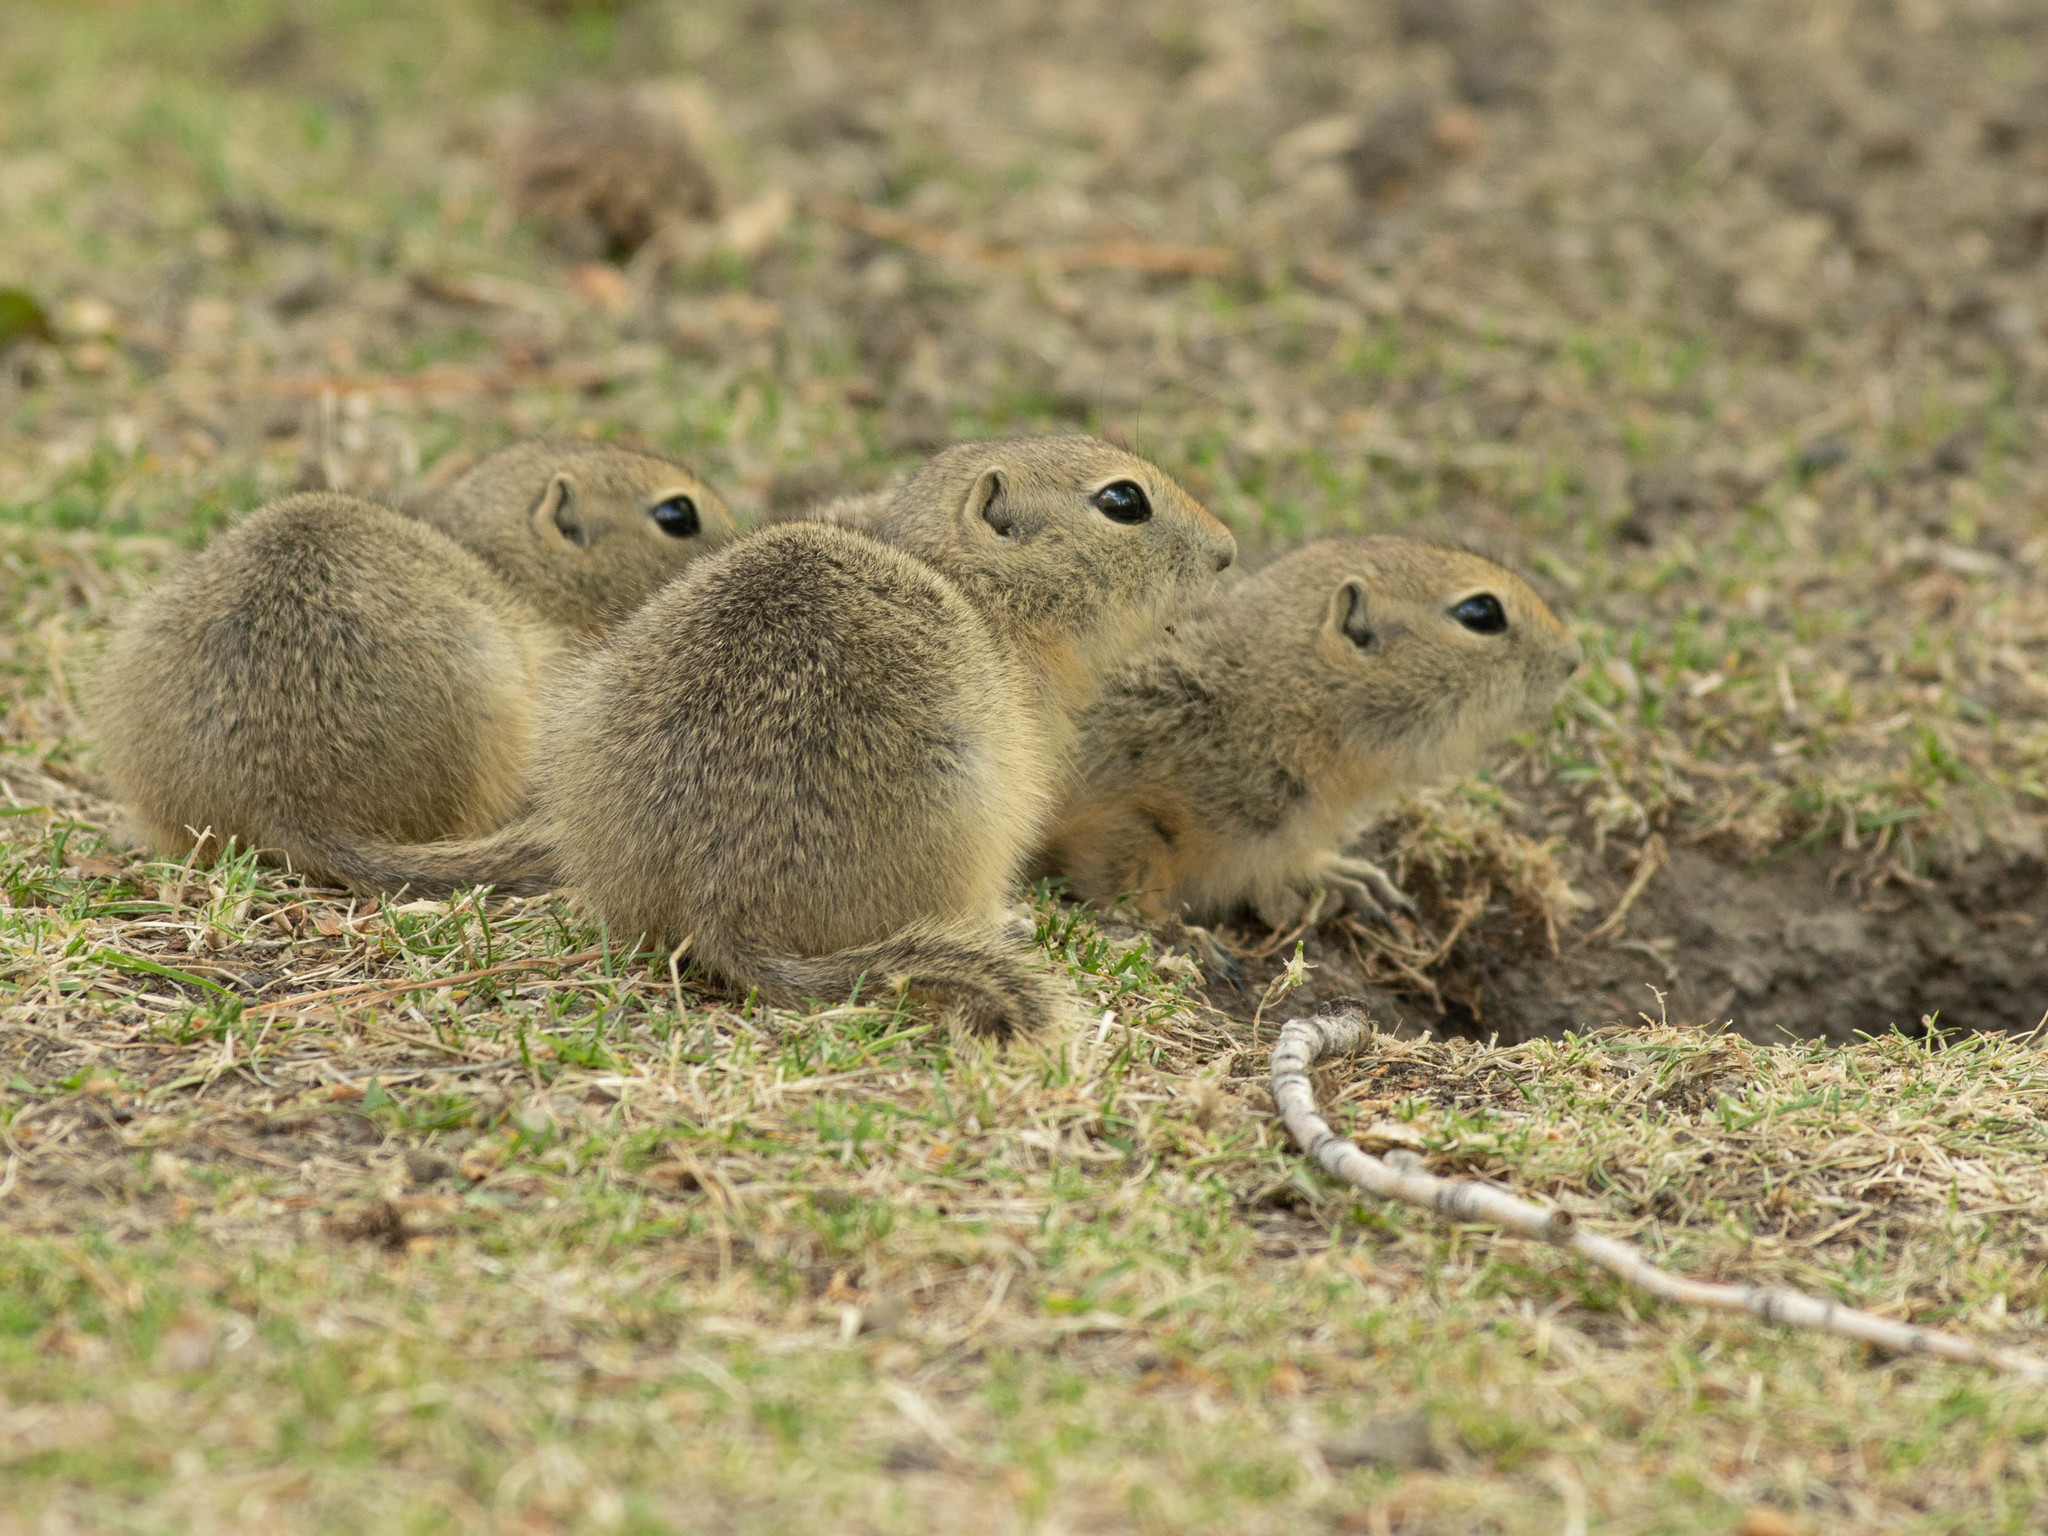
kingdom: Animalia
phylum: Chordata
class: Mammalia
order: Rodentia
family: Sciuridae
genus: Urocitellus
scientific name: Urocitellus richardsonii
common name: Richardson's ground squirrel
